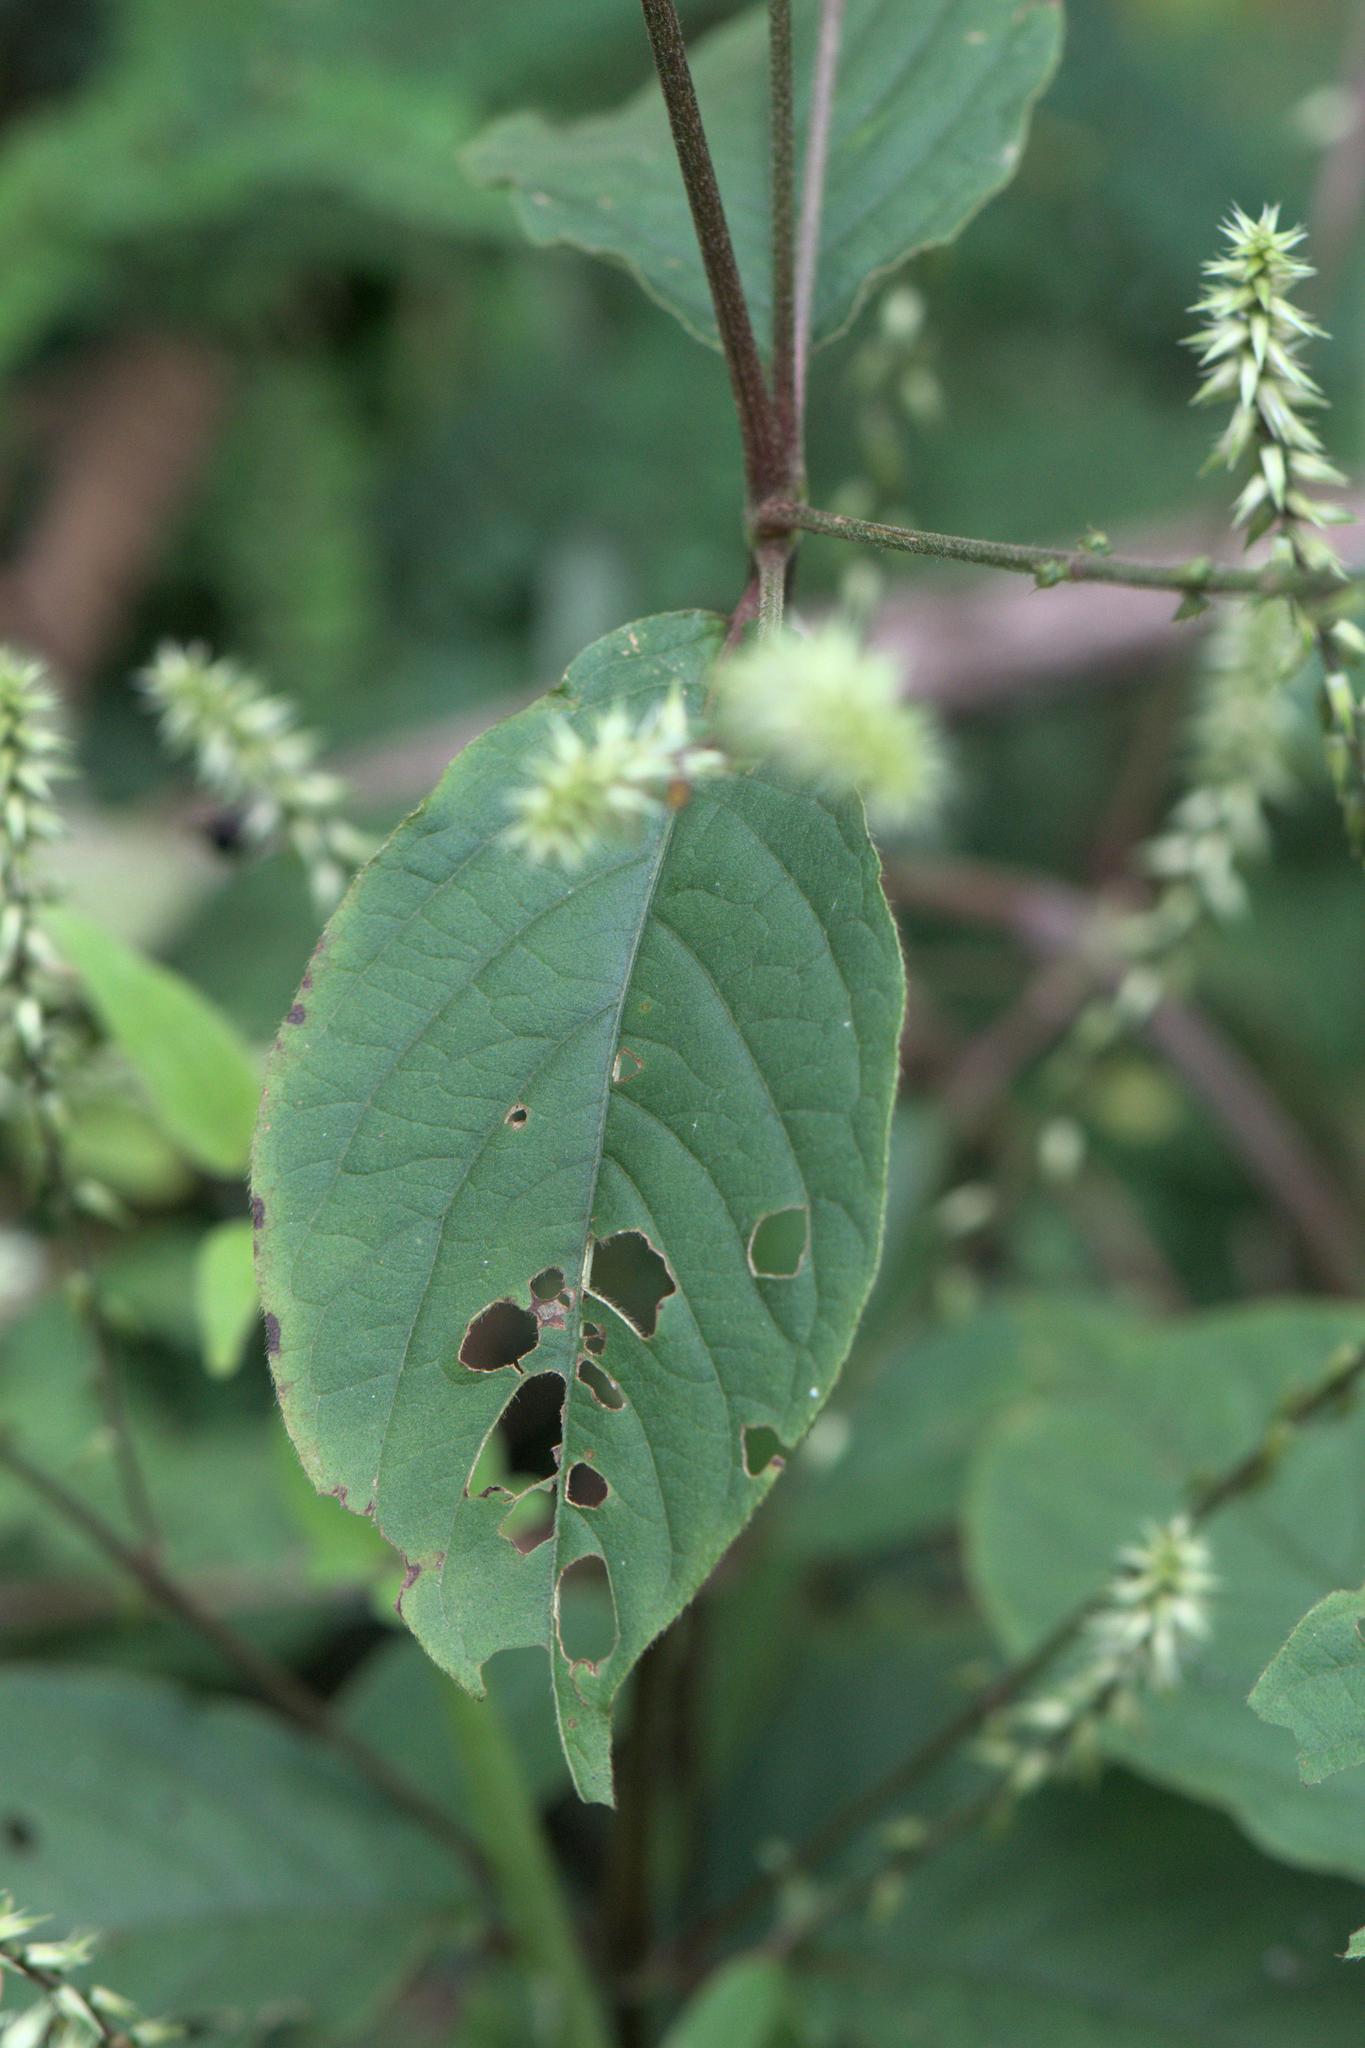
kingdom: Plantae
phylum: Tracheophyta
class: Magnoliopsida
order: Caryophyllales
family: Amaranthaceae
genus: Achyranthes
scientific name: Achyranthes aspera
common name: Devil's horsewhip
